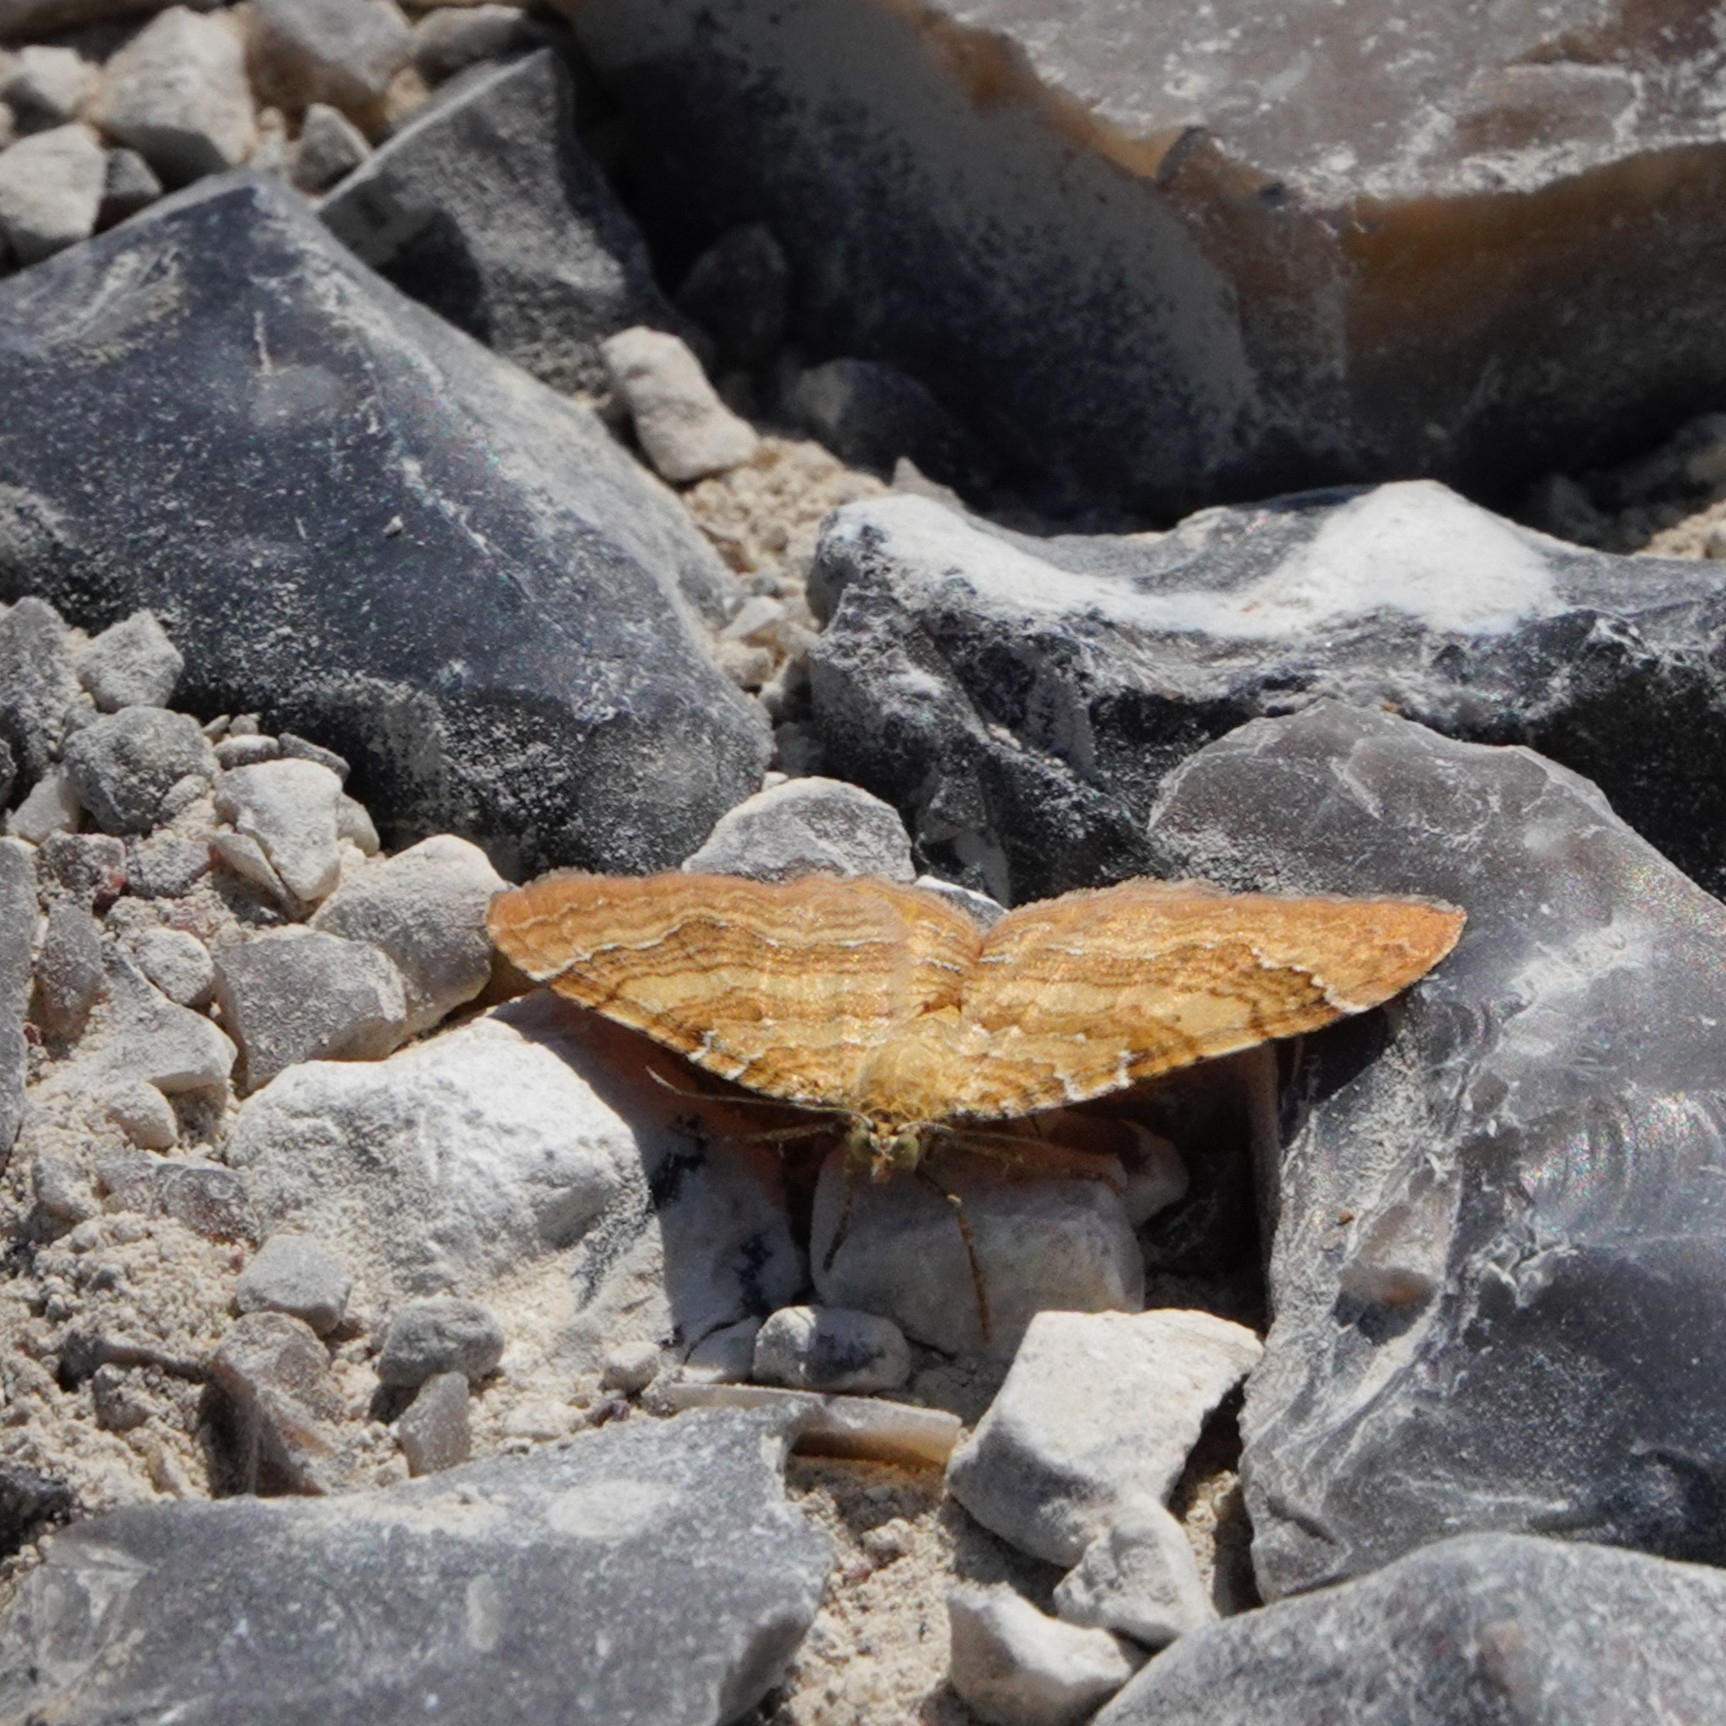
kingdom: Animalia
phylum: Arthropoda
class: Insecta
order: Lepidoptera
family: Geometridae
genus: Camptogramma
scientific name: Camptogramma bilineata
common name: Yellow shell
